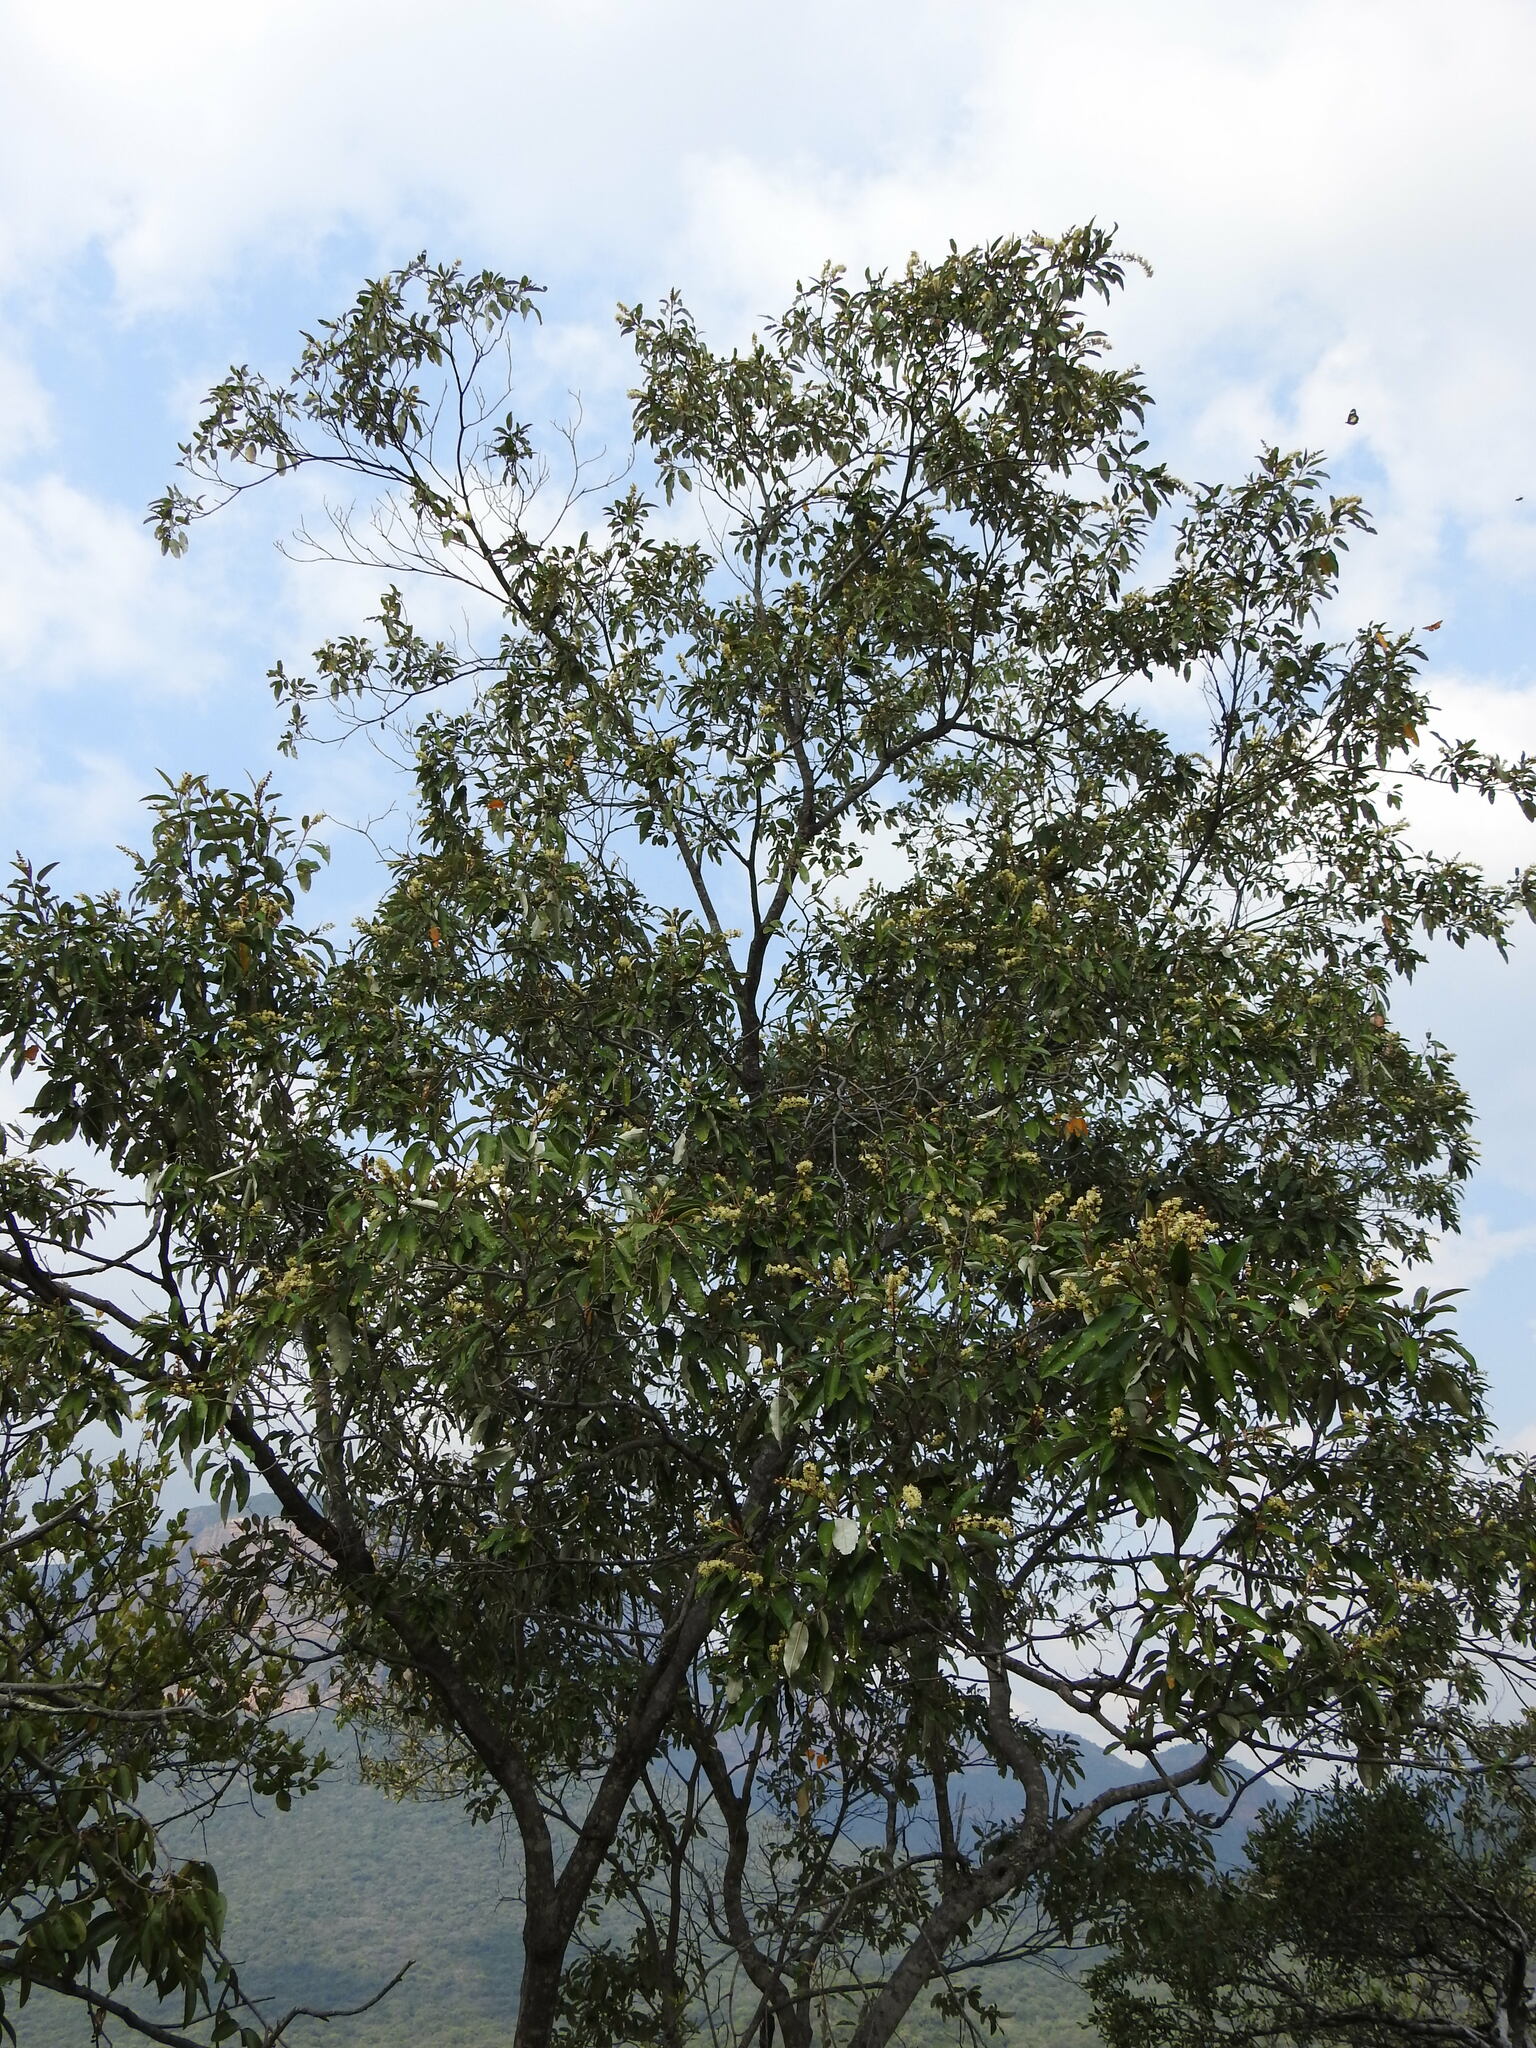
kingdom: Plantae
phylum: Tracheophyta
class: Magnoliopsida
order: Malpighiales
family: Euphorbiaceae
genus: Croton
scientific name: Croton gratissimus
